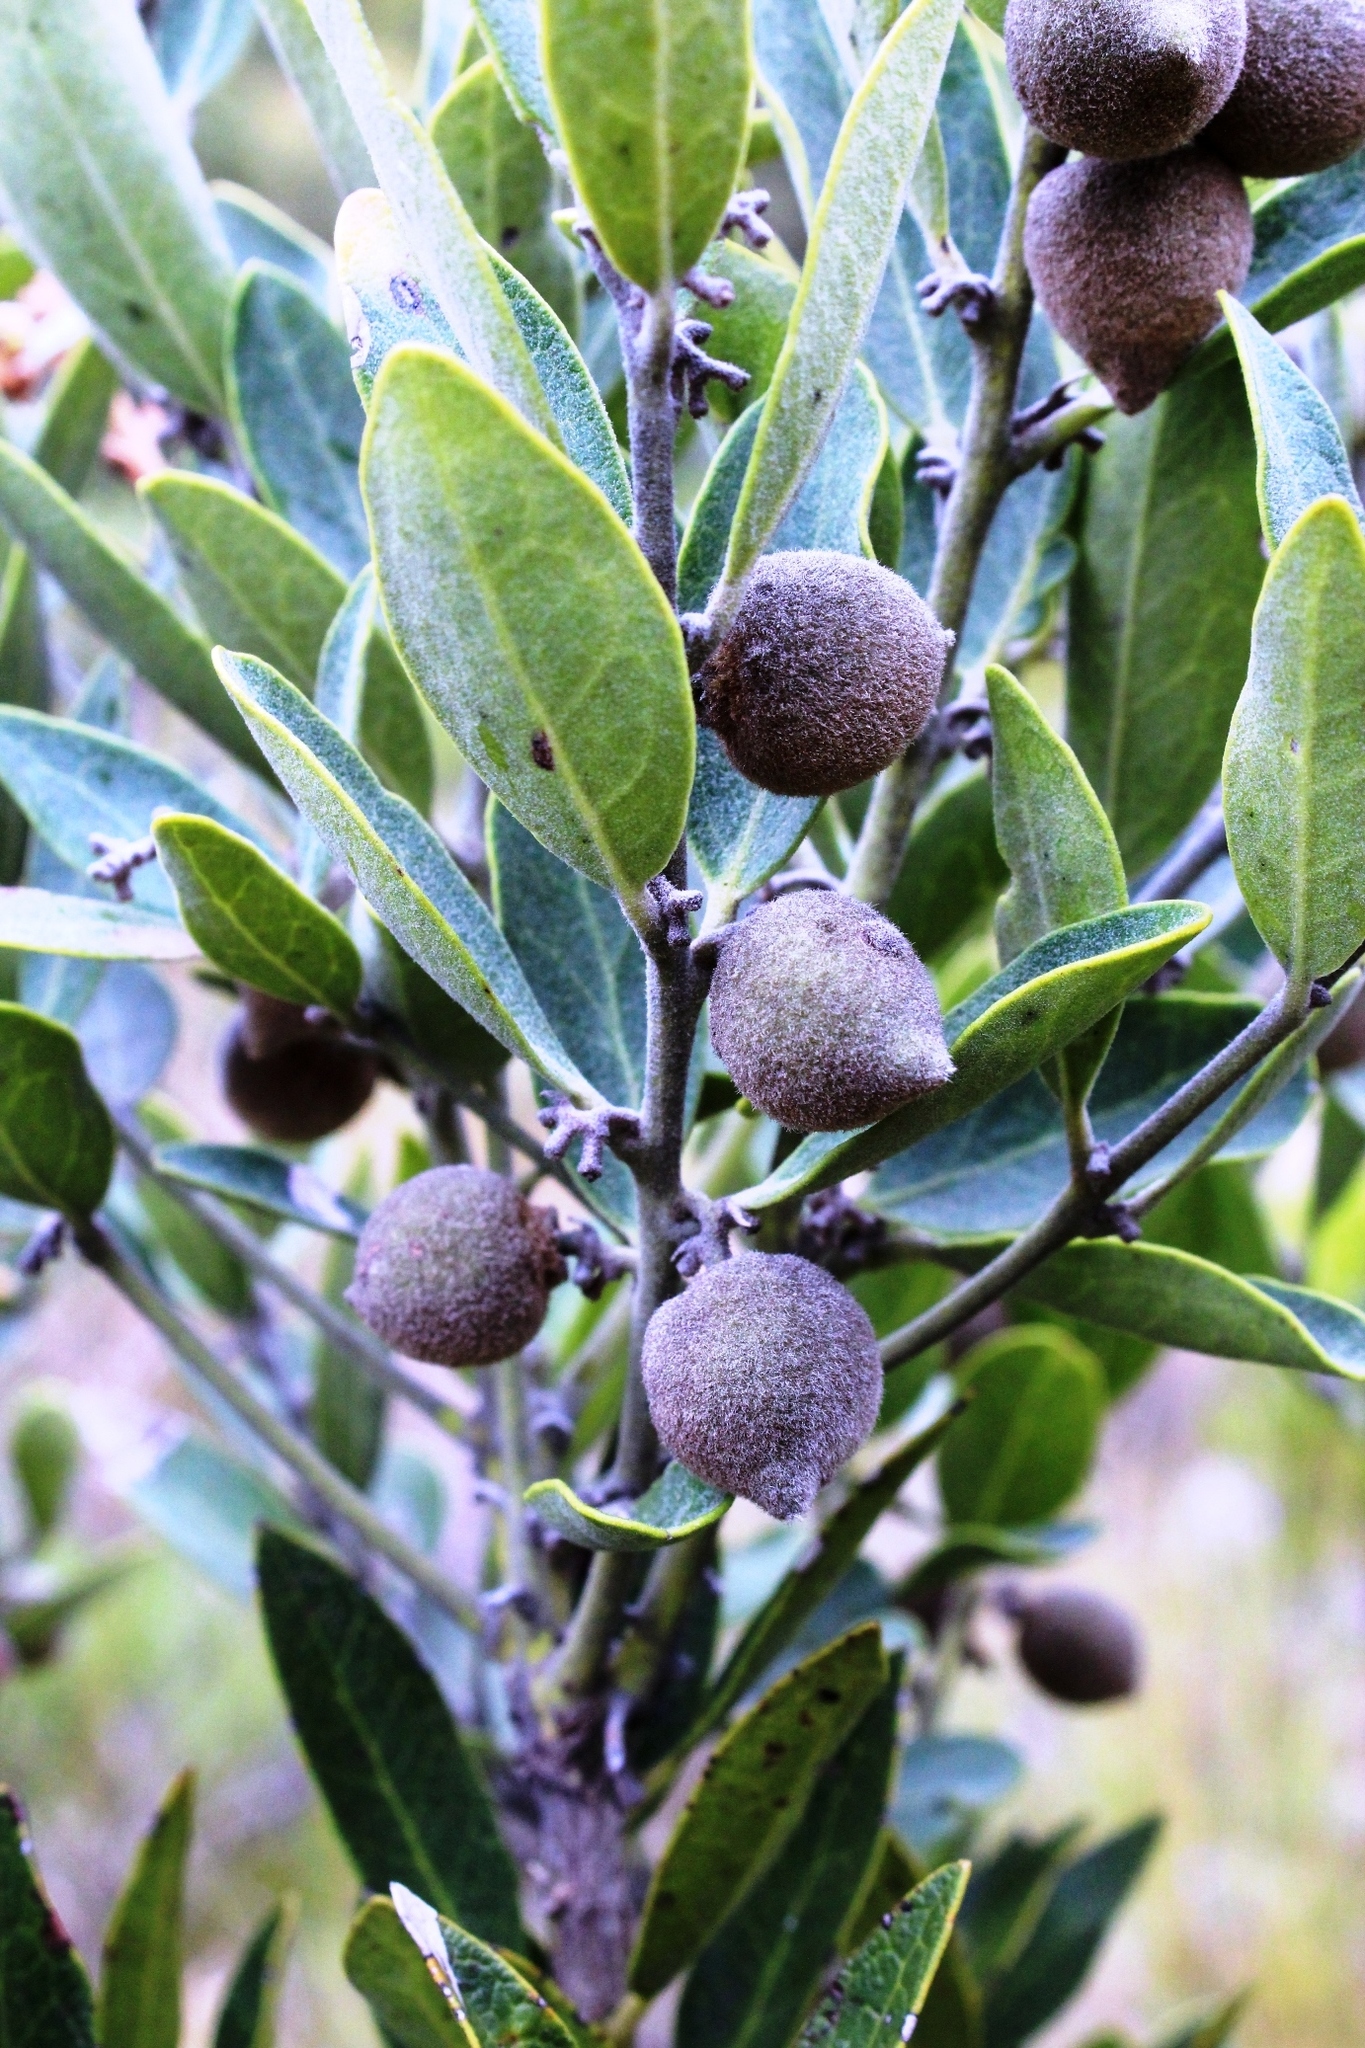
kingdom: Plantae
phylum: Tracheophyta
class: Magnoliopsida
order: Ericales
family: Ebenaceae
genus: Euclea
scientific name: Euclea polyandra
